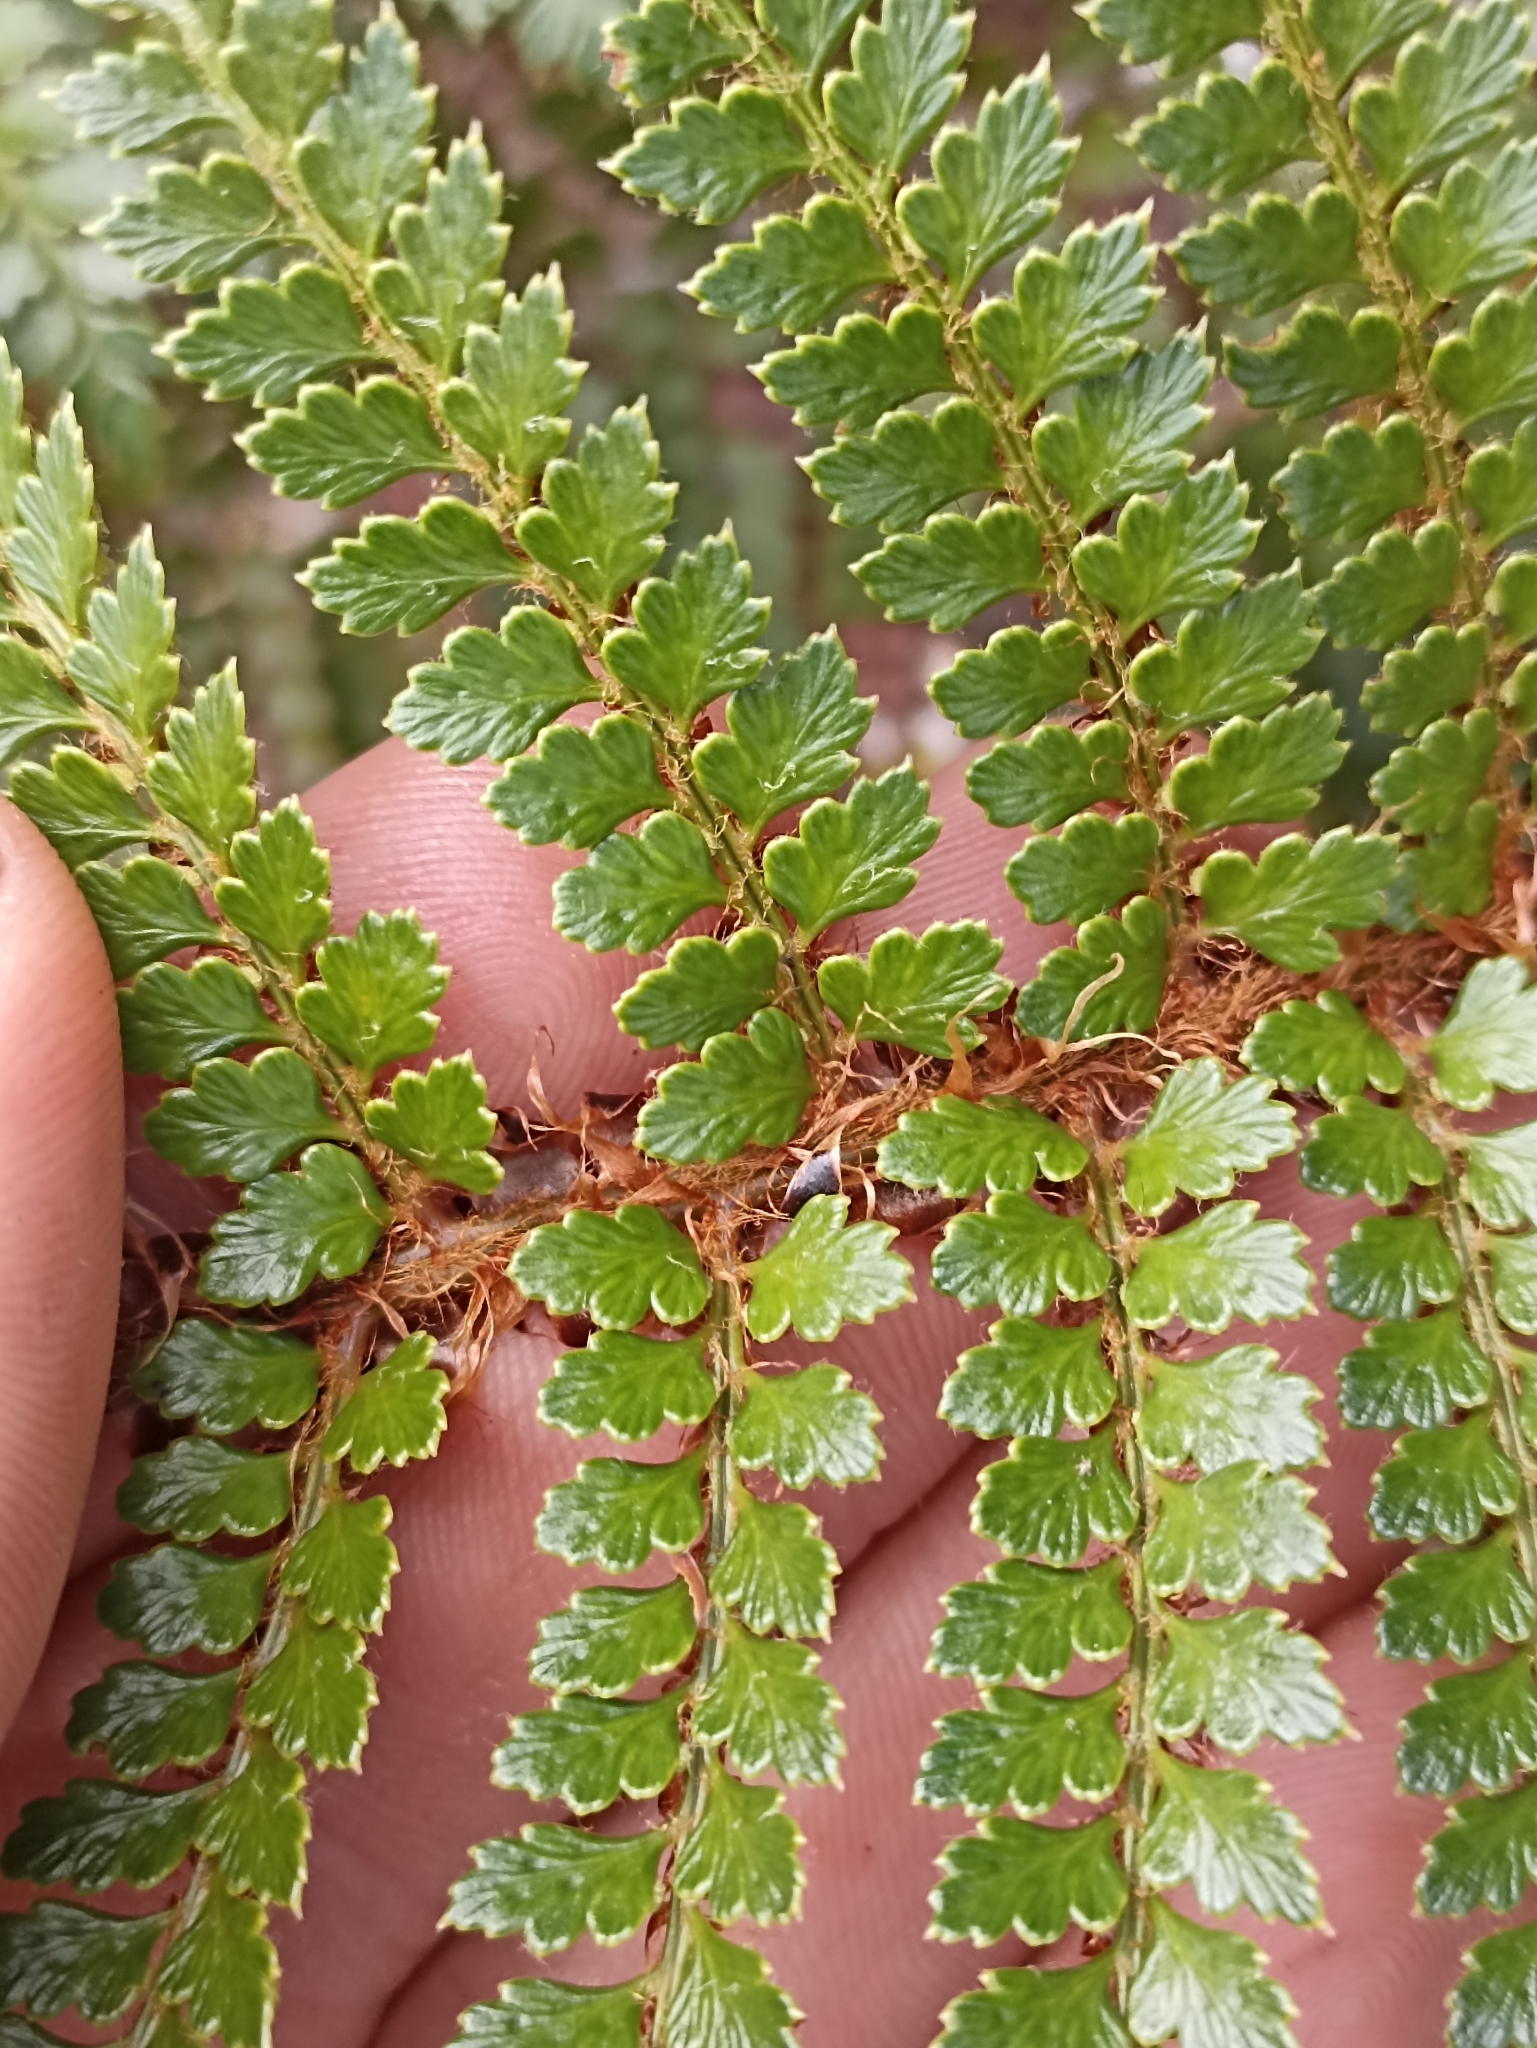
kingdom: Plantae
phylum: Tracheophyta
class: Polypodiopsida
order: Polypodiales
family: Dryopteridaceae
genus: Polystichum
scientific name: Polystichum vestitum
